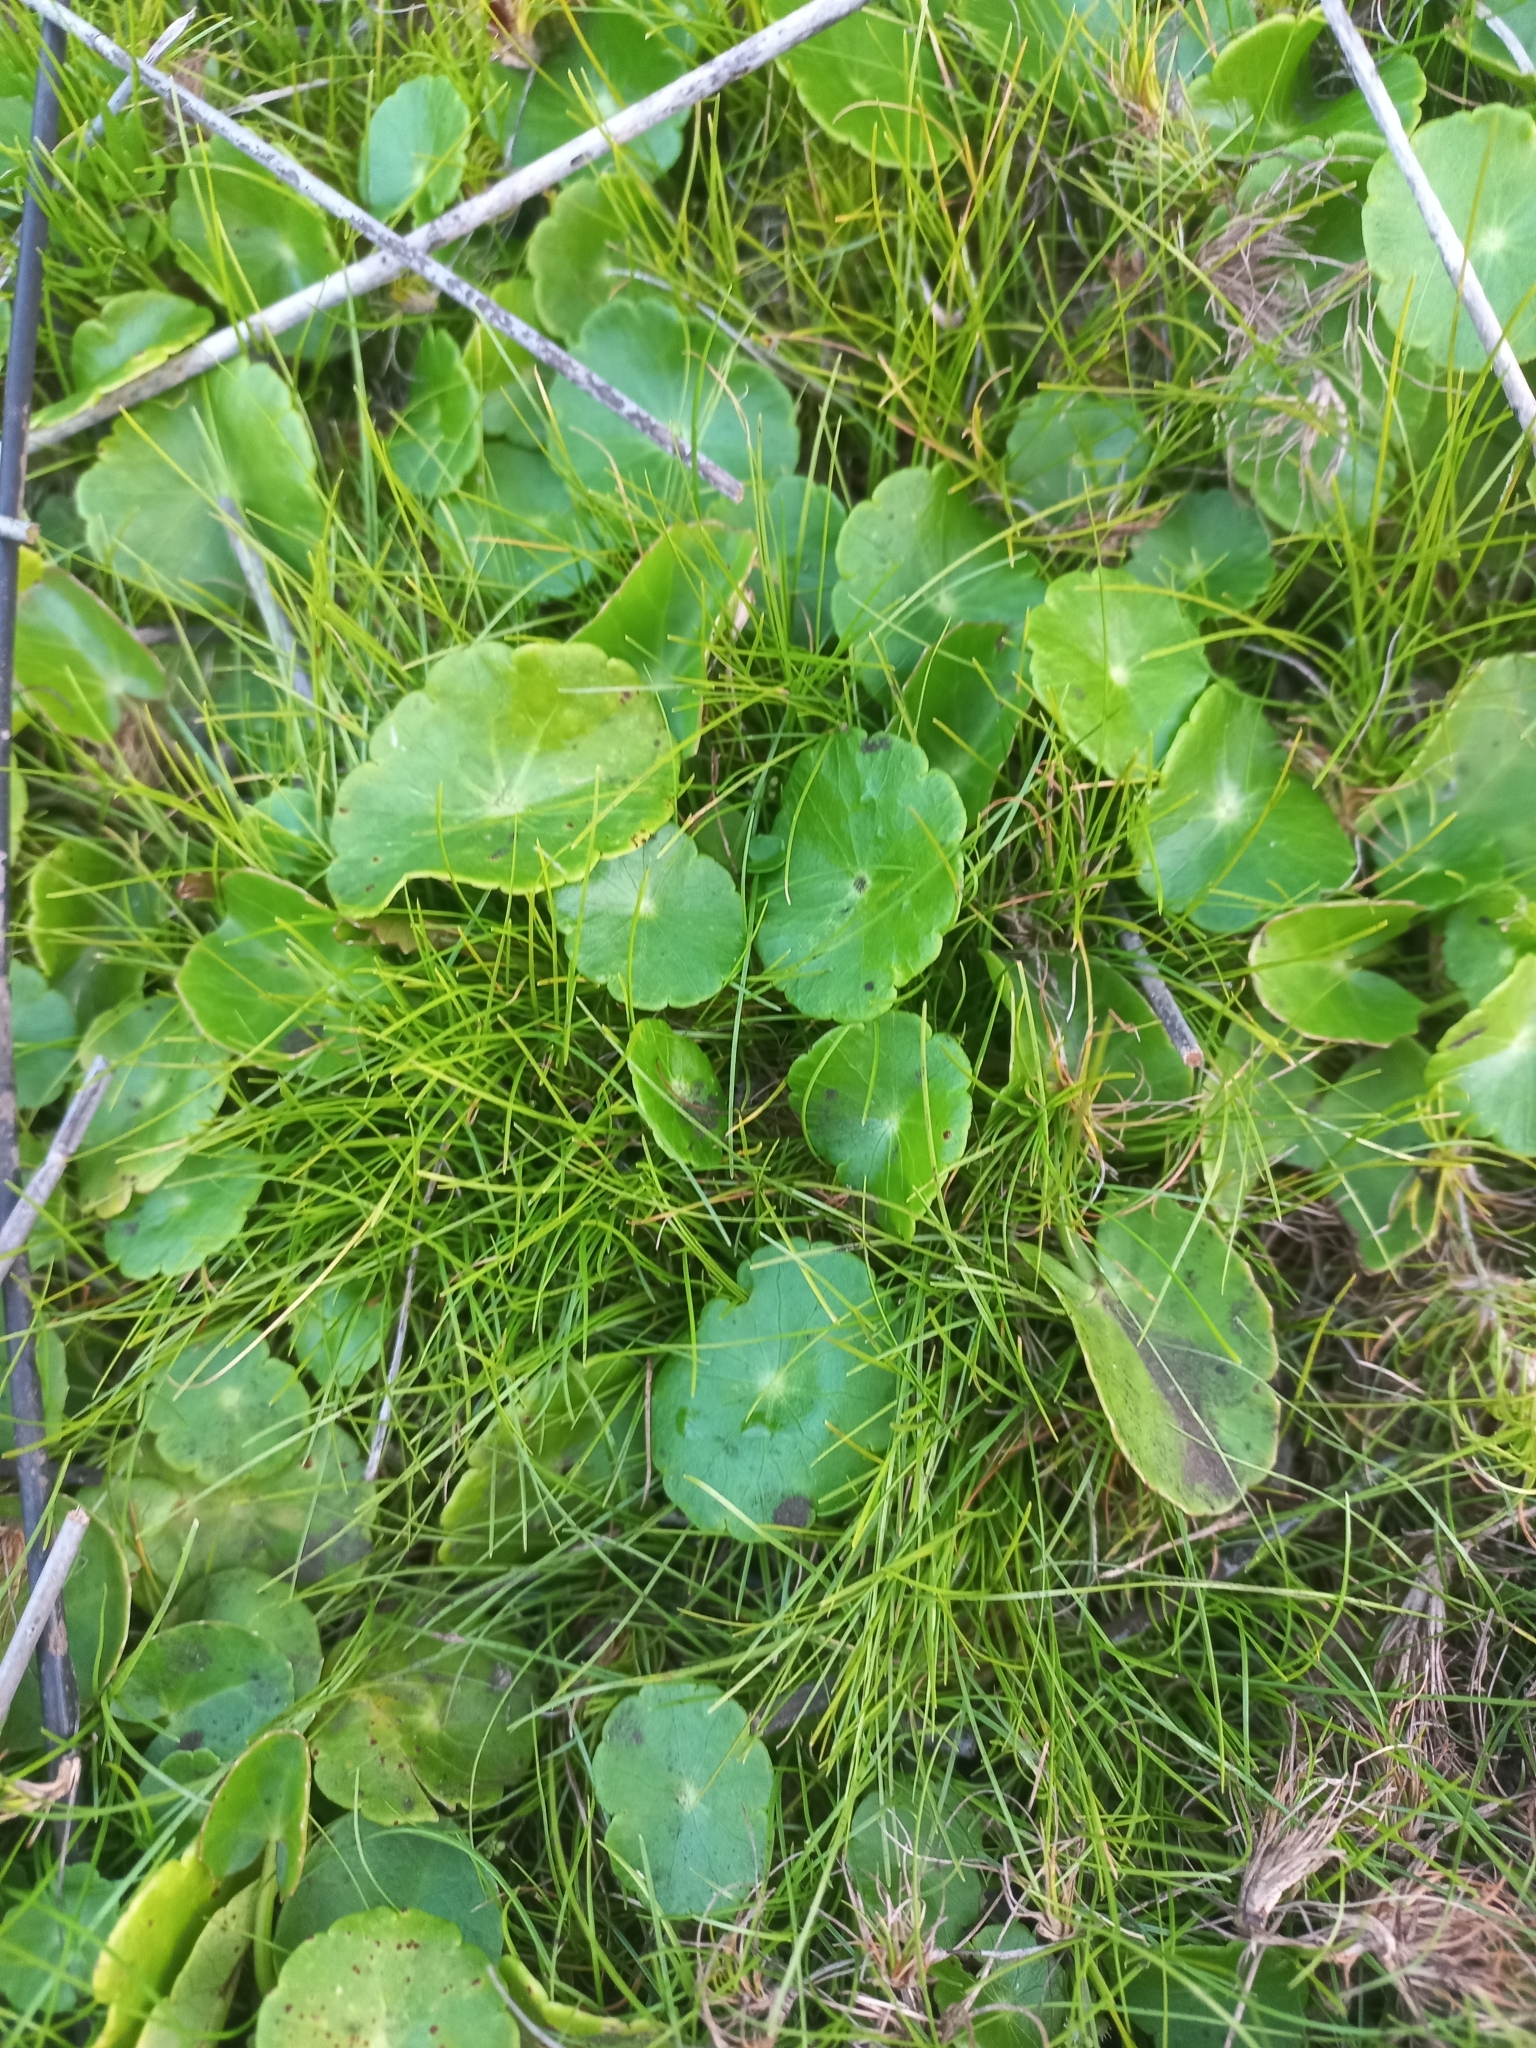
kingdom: Plantae
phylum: Tracheophyta
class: Magnoliopsida
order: Apiales
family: Araliaceae
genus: Hydrocotyle
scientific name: Hydrocotyle verticillata
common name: Whorled marshpennywort
